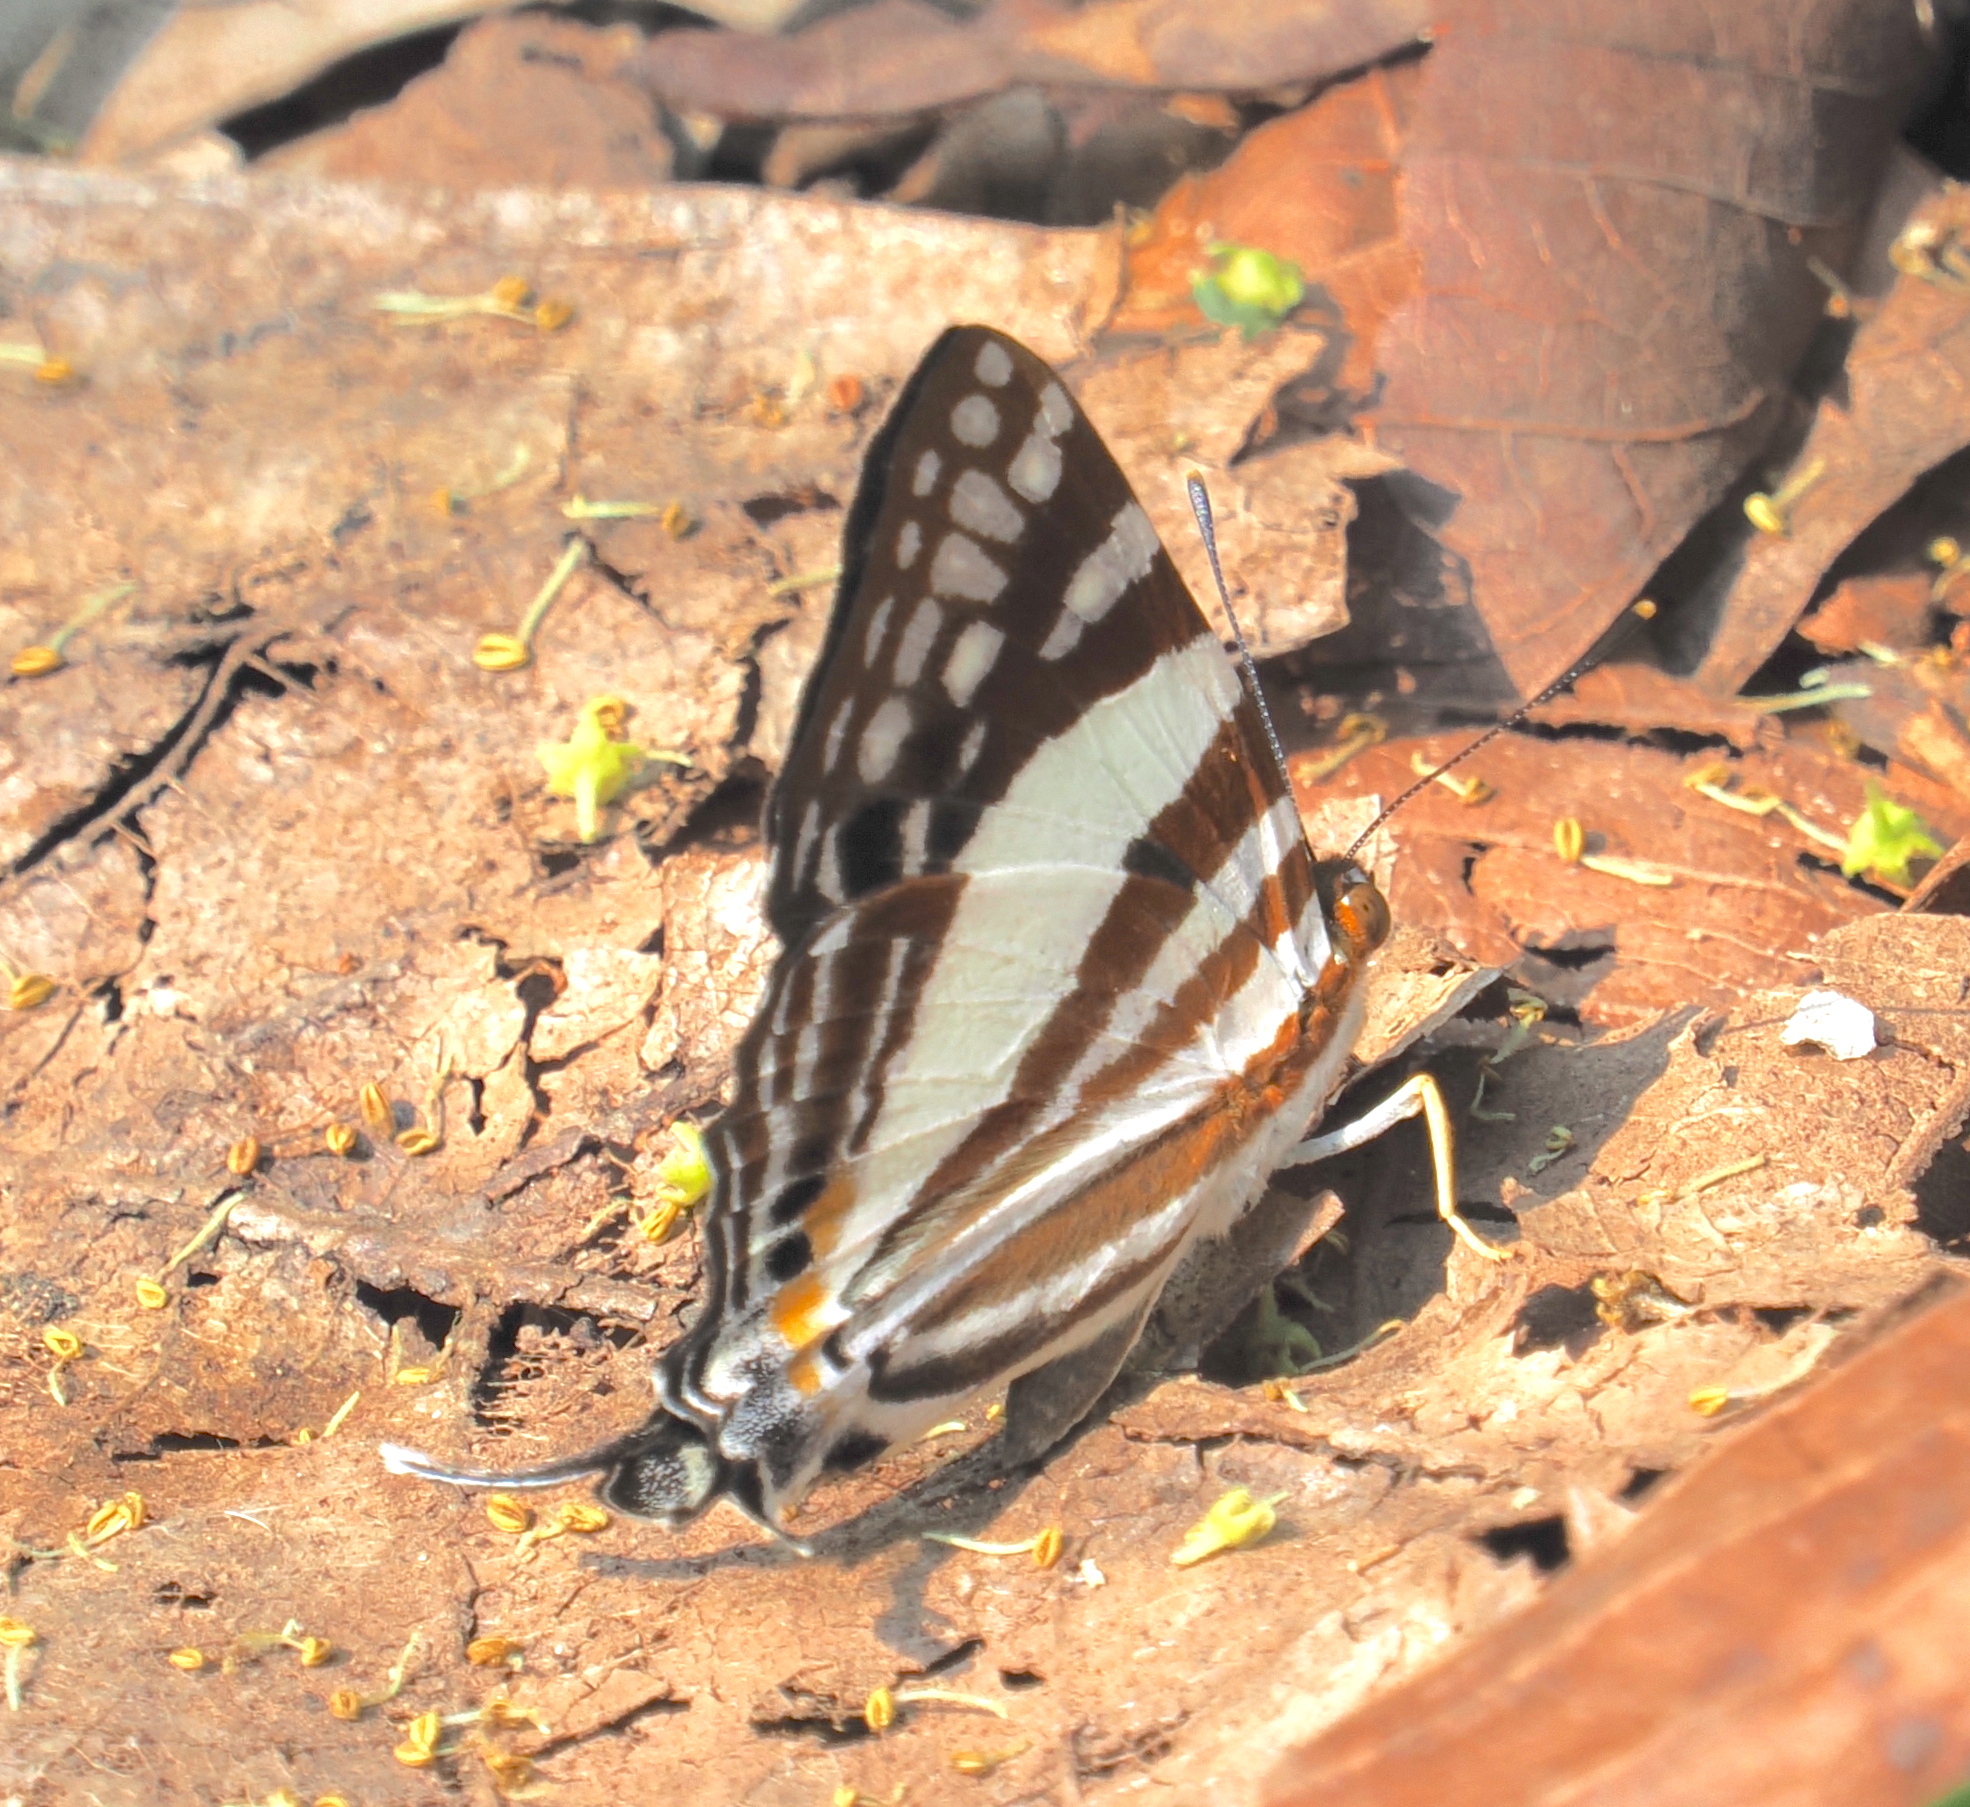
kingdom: Animalia
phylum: Arthropoda
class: Insecta
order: Lepidoptera
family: Lycaenidae
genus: Dodona
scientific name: Dodona deodata
